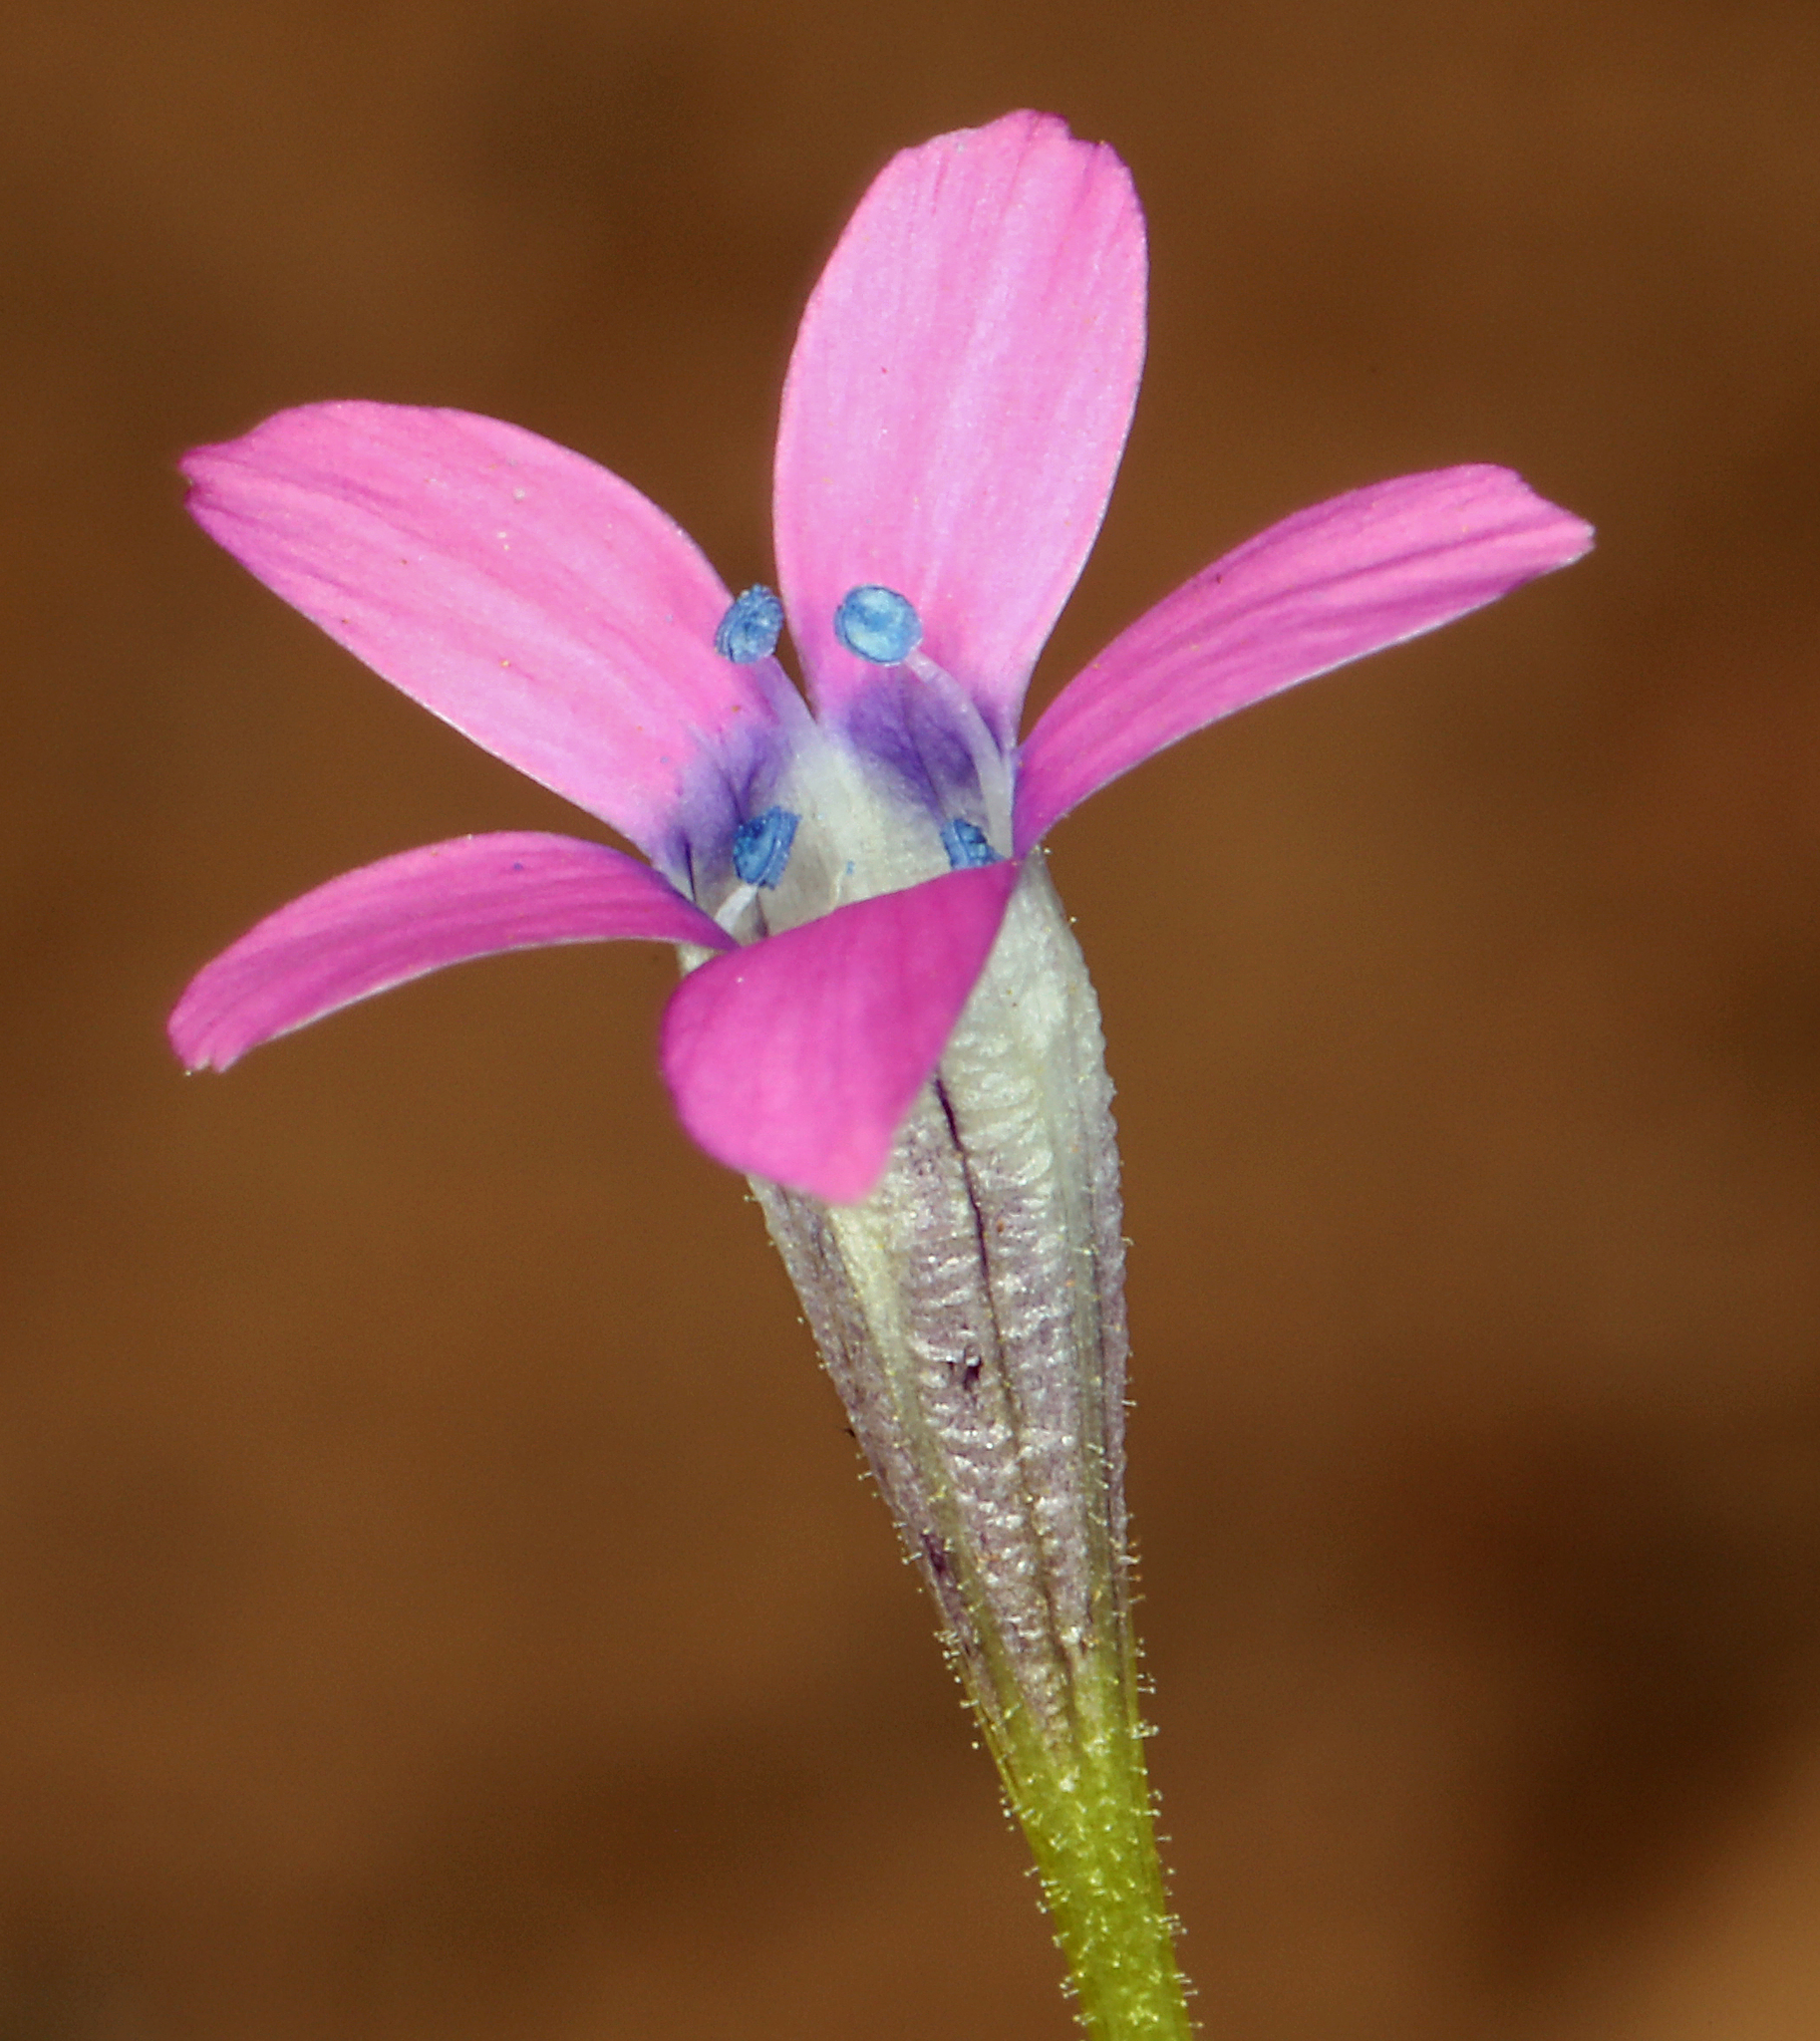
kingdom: Plantae
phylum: Tracheophyta
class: Magnoliopsida
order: Ericales
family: Polemoniaceae
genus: Navarretia
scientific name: Navarretia leptalea
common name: Bridges' pincushionplant
